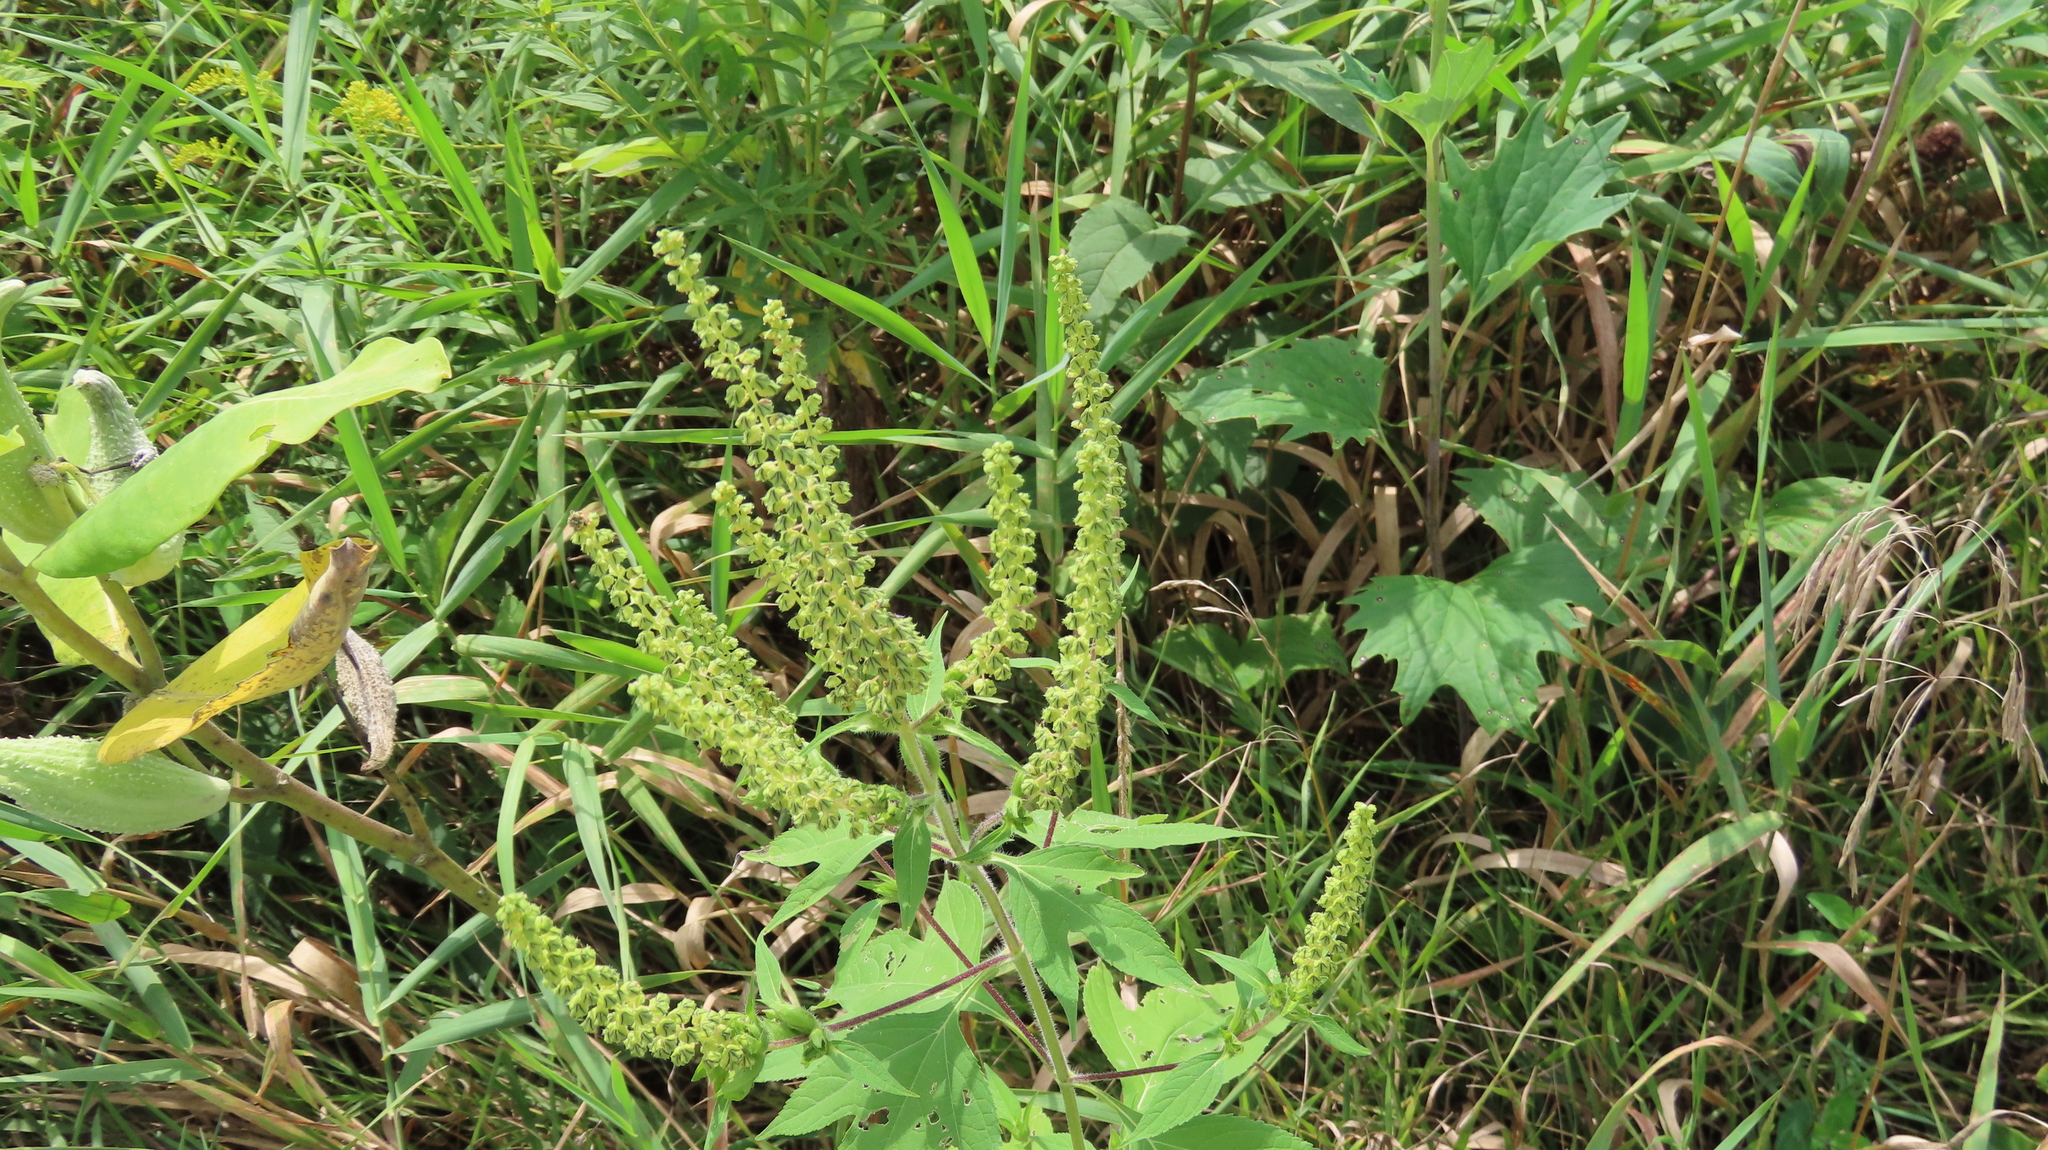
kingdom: Plantae
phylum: Tracheophyta
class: Magnoliopsida
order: Asterales
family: Asteraceae
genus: Ambrosia
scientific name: Ambrosia trifida
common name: Giant ragweed
